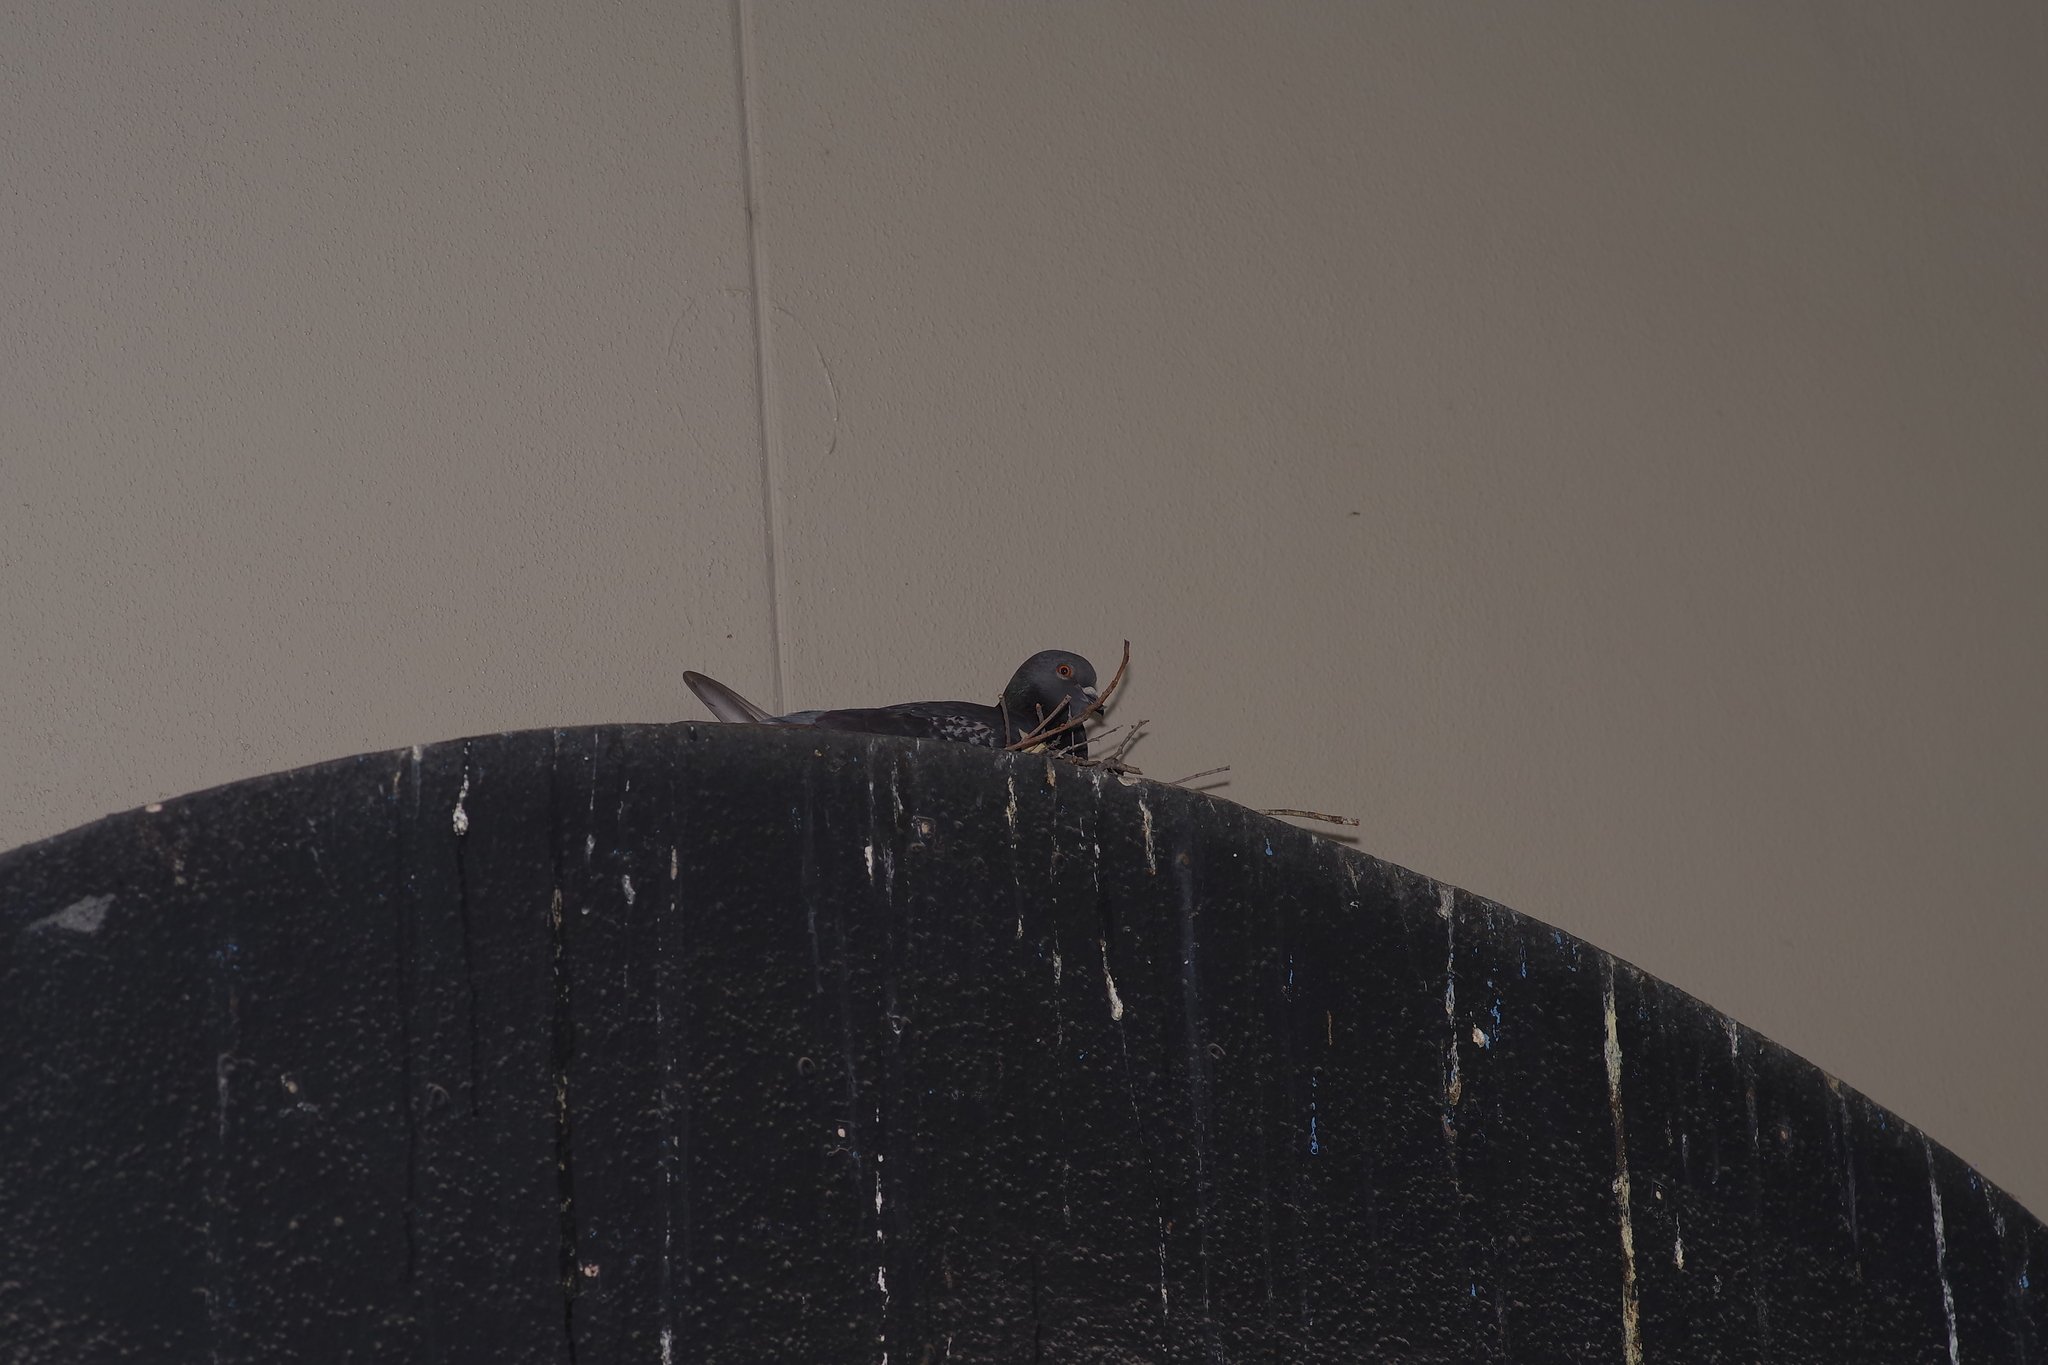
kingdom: Animalia
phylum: Chordata
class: Aves
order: Columbiformes
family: Columbidae
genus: Columba
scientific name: Columba livia
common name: Rock pigeon
